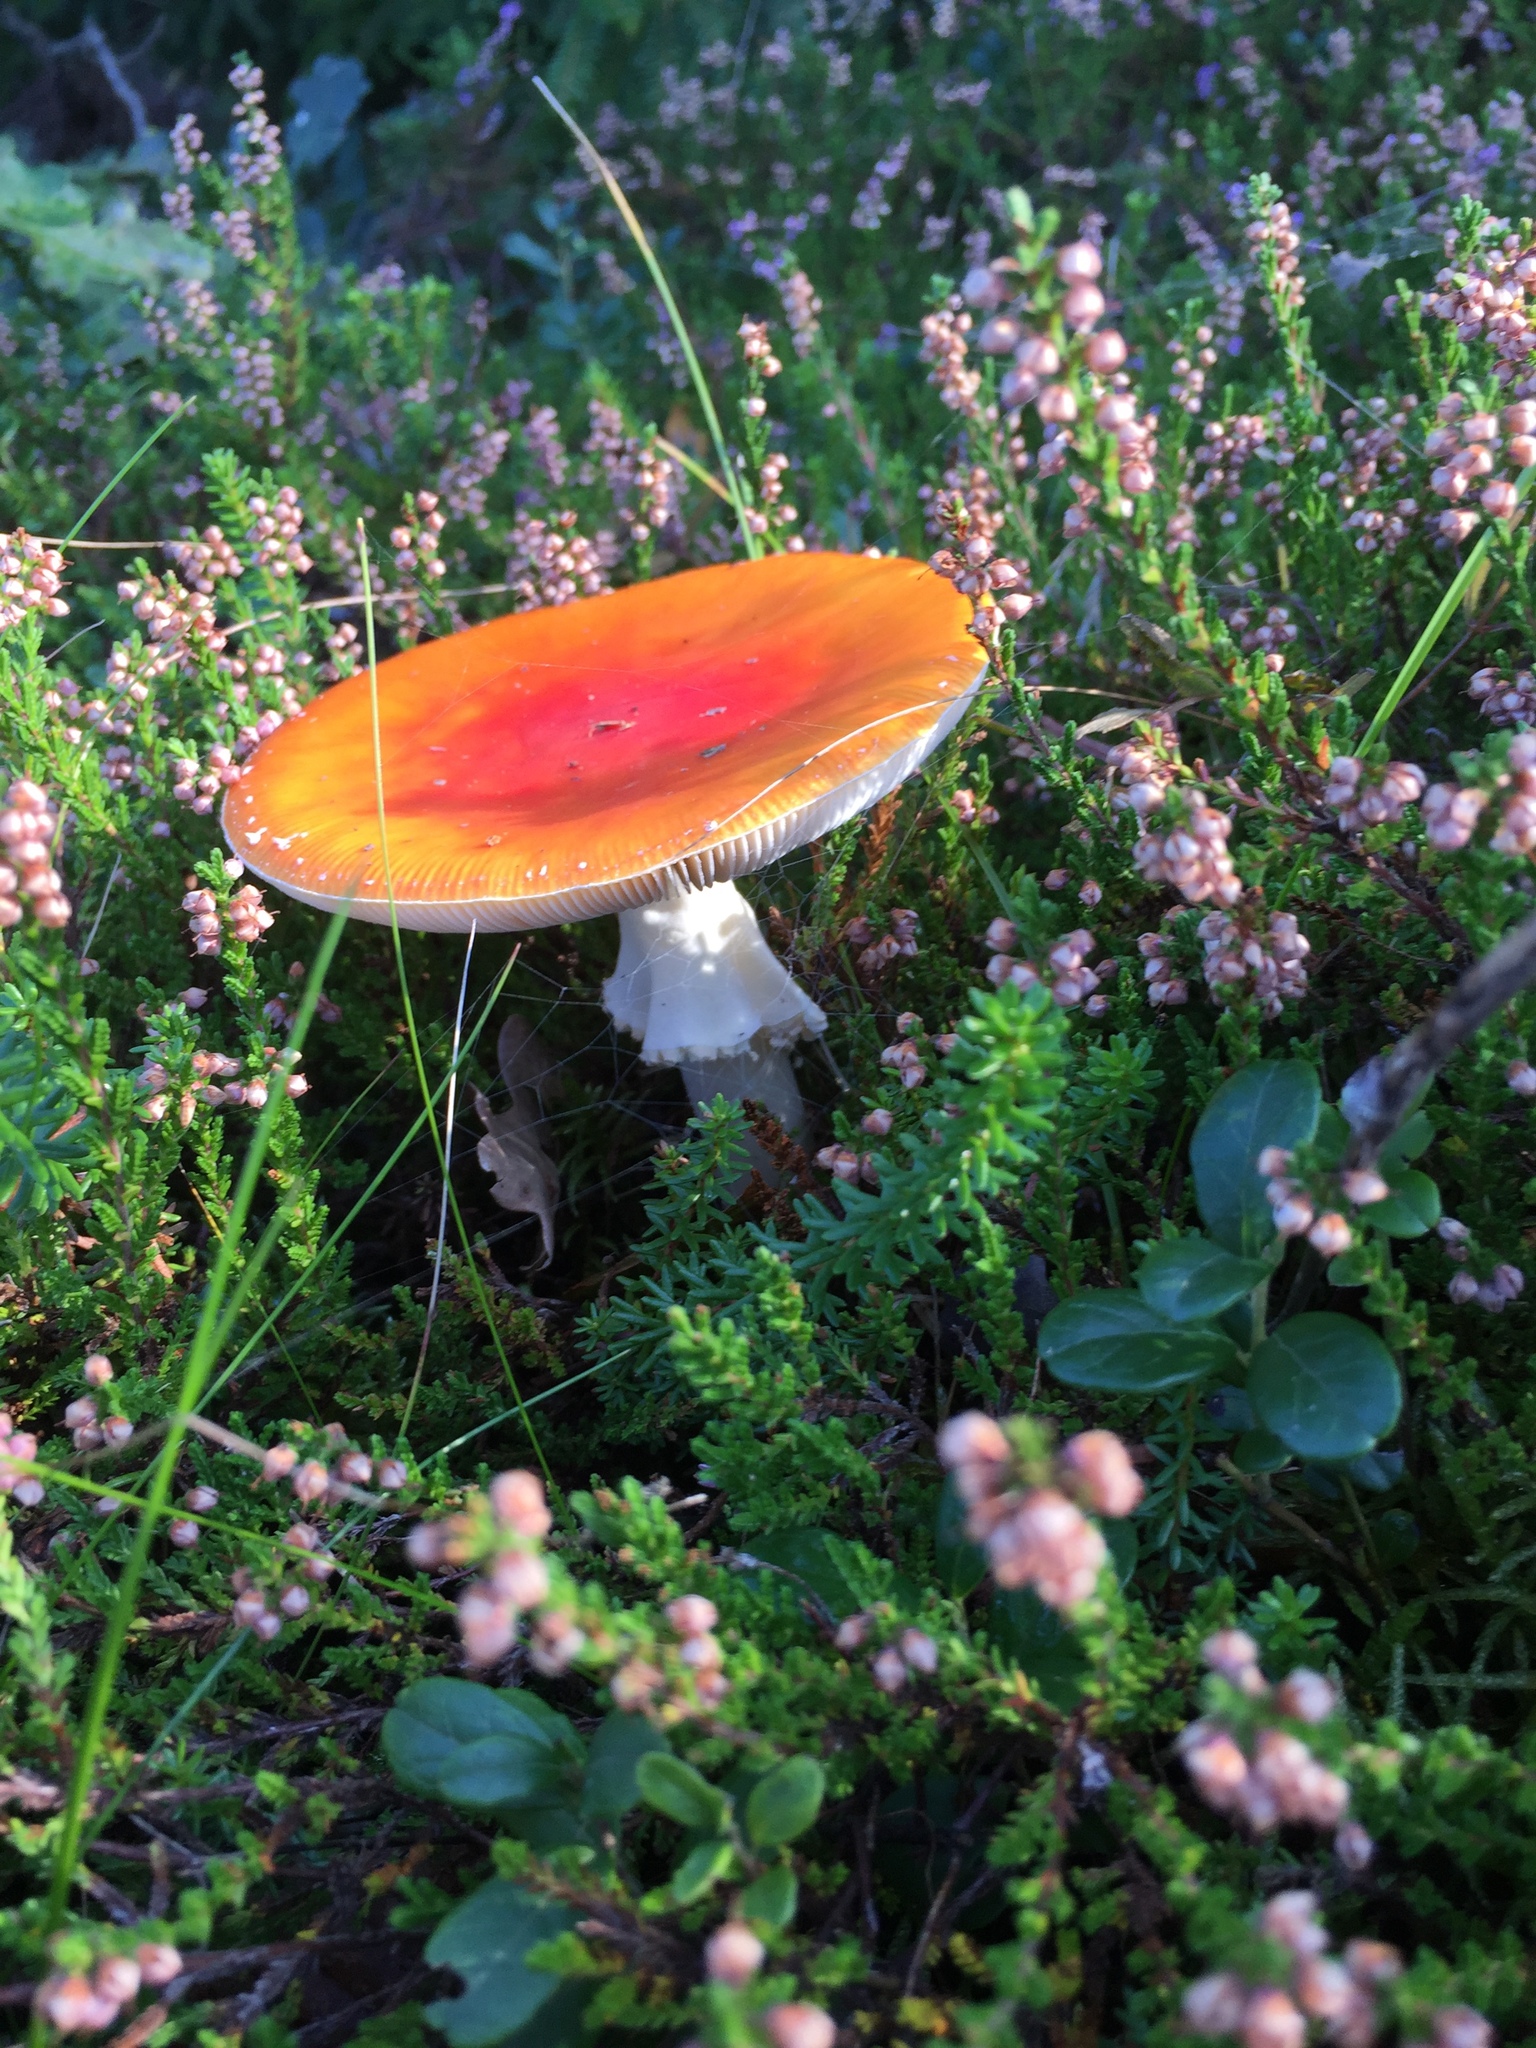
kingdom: Fungi
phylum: Basidiomycota
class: Agaricomycetes
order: Agaricales
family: Amanitaceae
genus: Amanita
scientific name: Amanita muscaria
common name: Fly agaric
